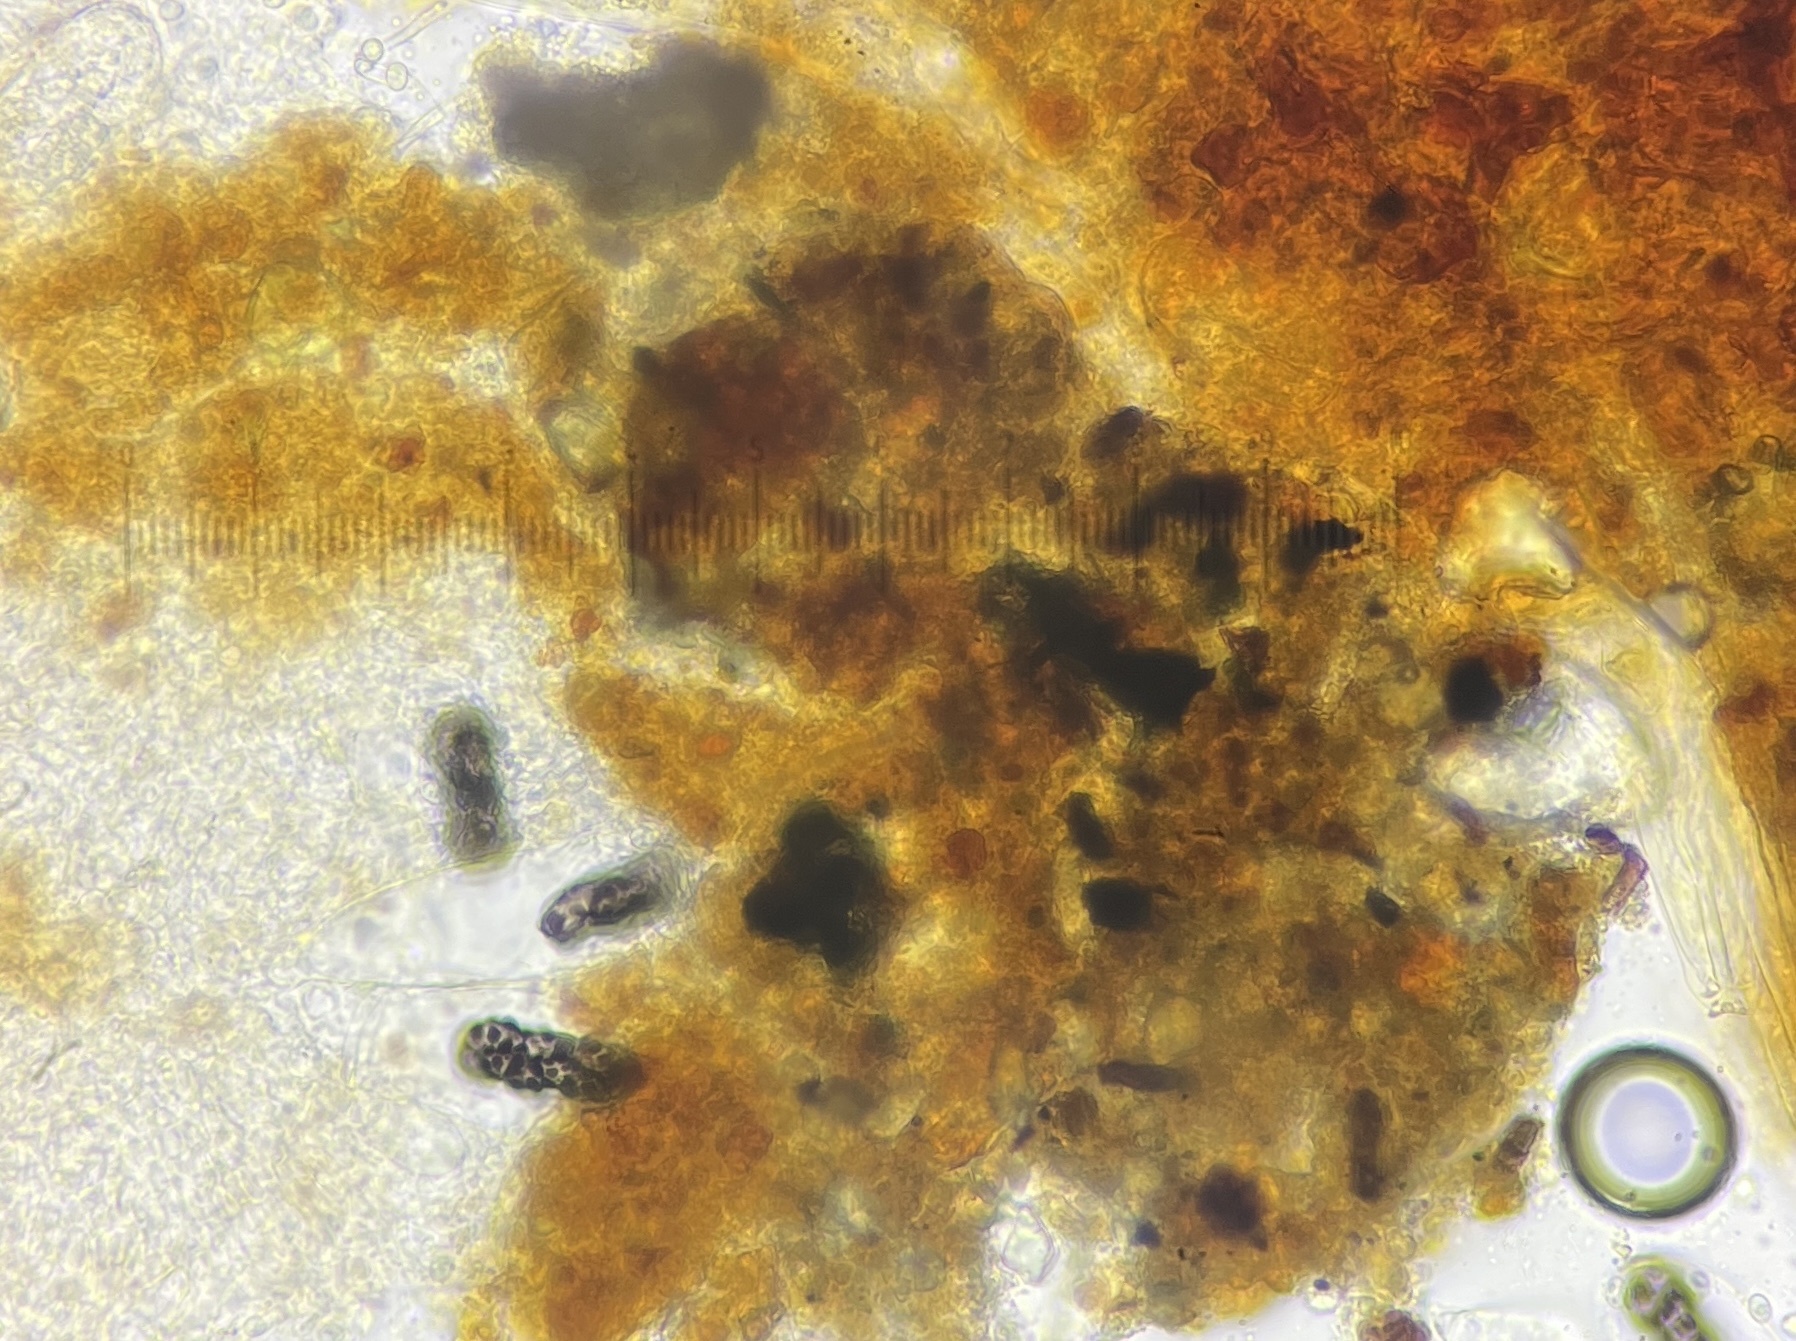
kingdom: Fungi
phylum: Ascomycota
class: Pezizomycetes
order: Pezizales
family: Ascobolaceae
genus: Saccobolus
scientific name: Saccobolus verrucisporus
